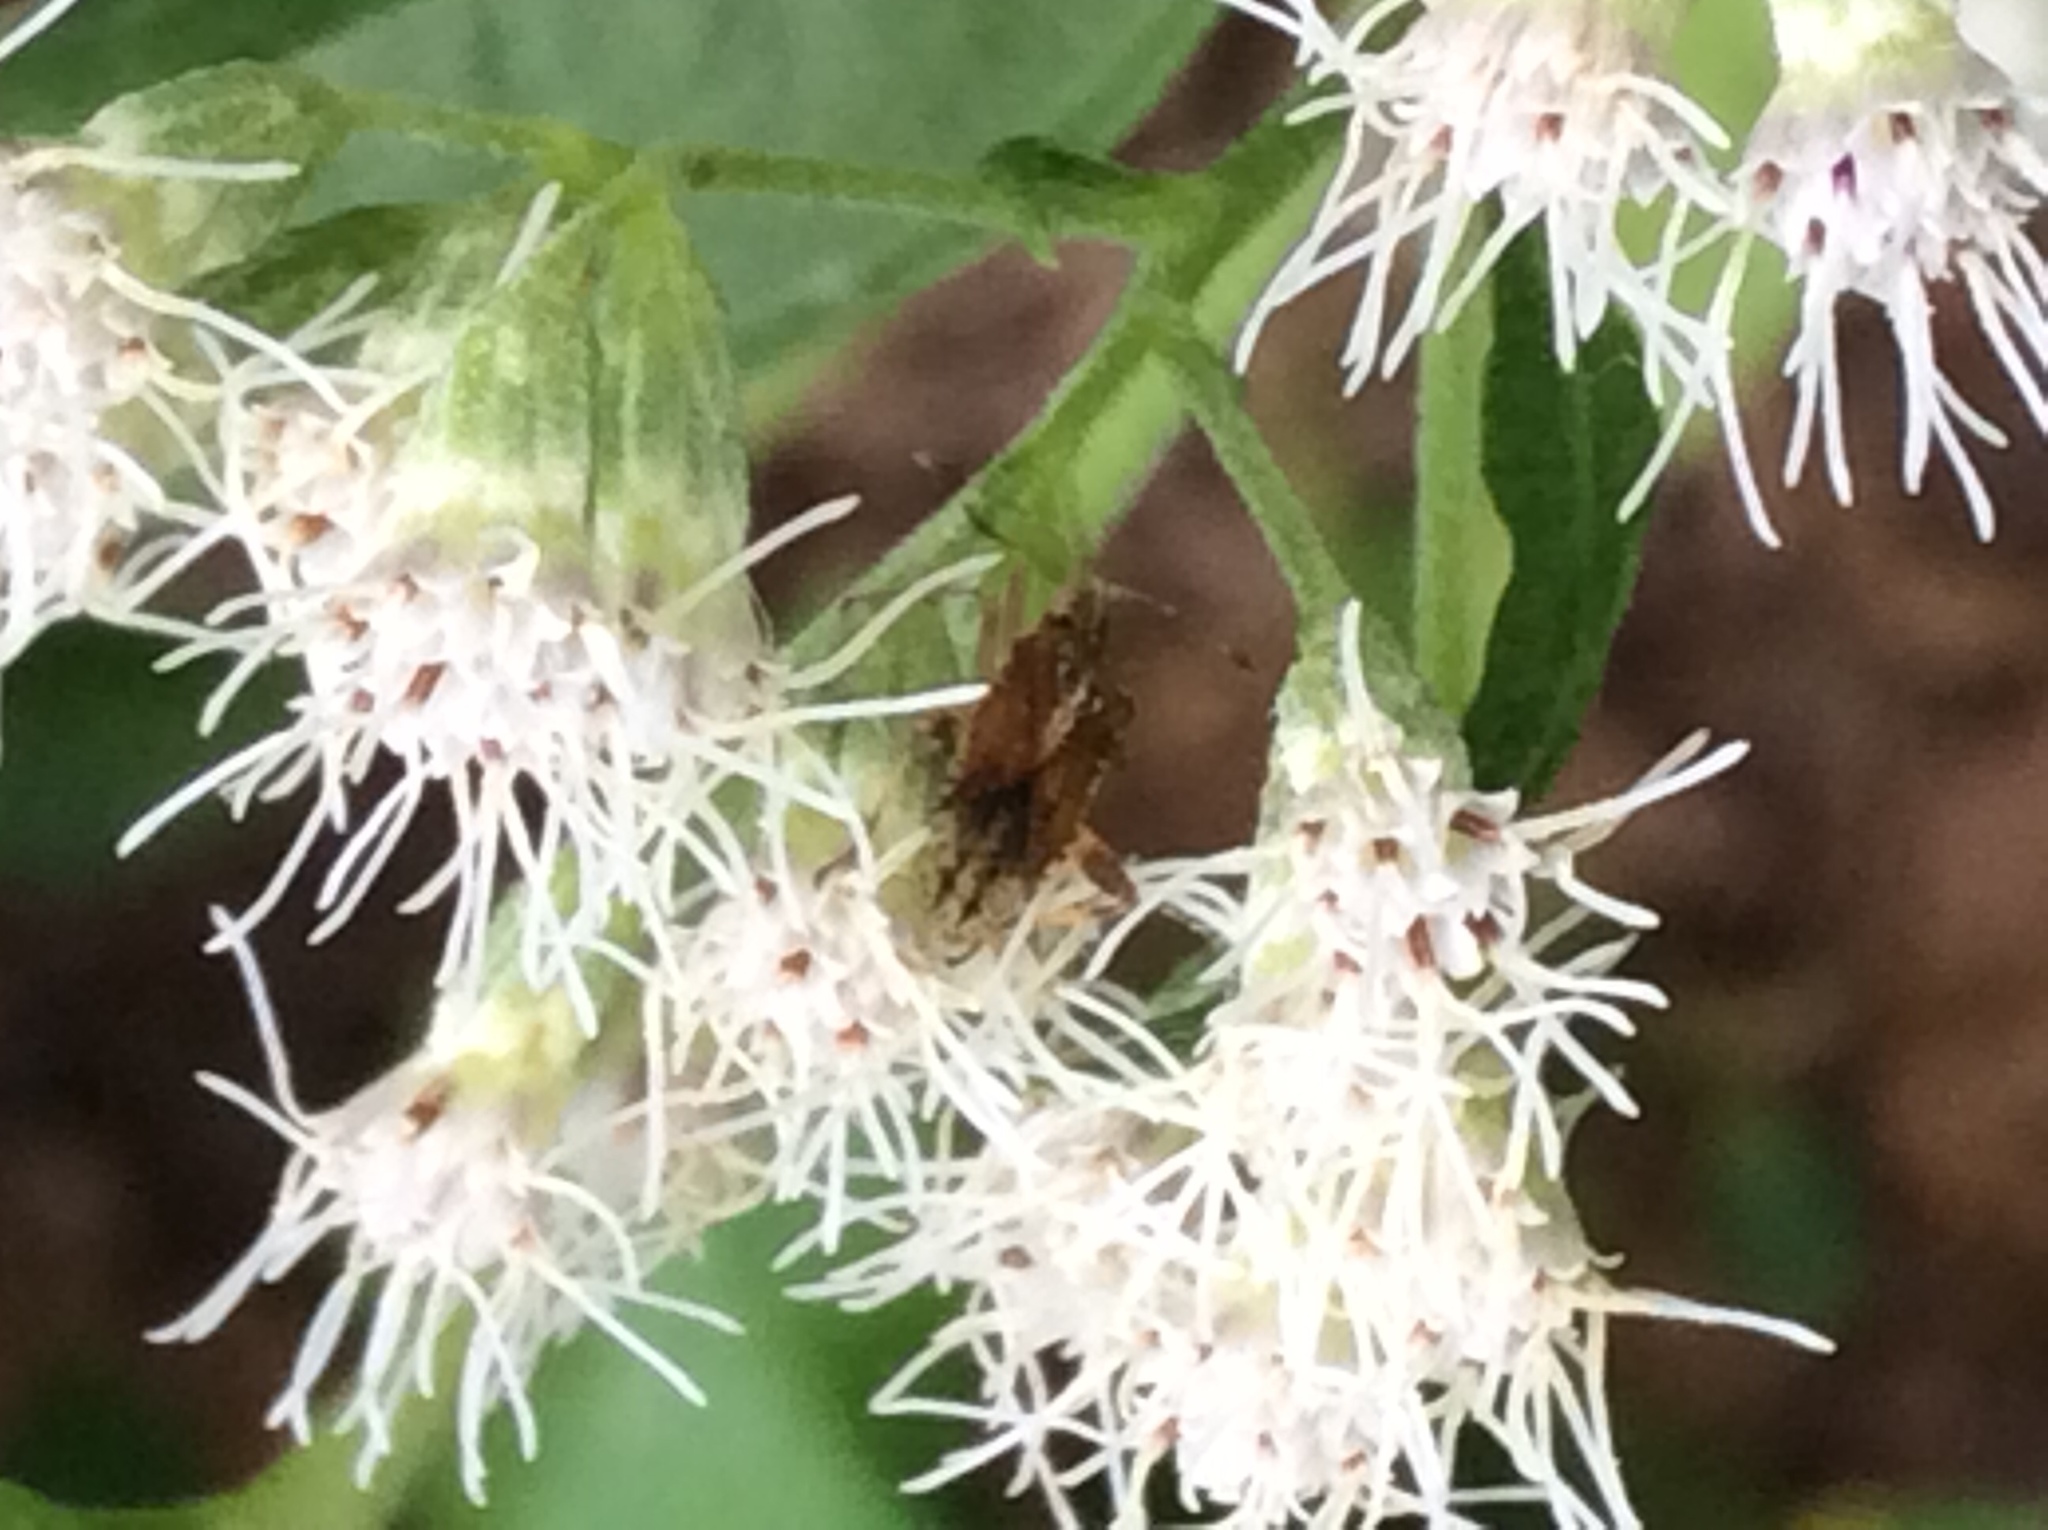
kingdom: Animalia
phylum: Arthropoda
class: Insecta
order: Hemiptera
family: Rhopalidae
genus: Harmostes
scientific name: Harmostes fraterculus
